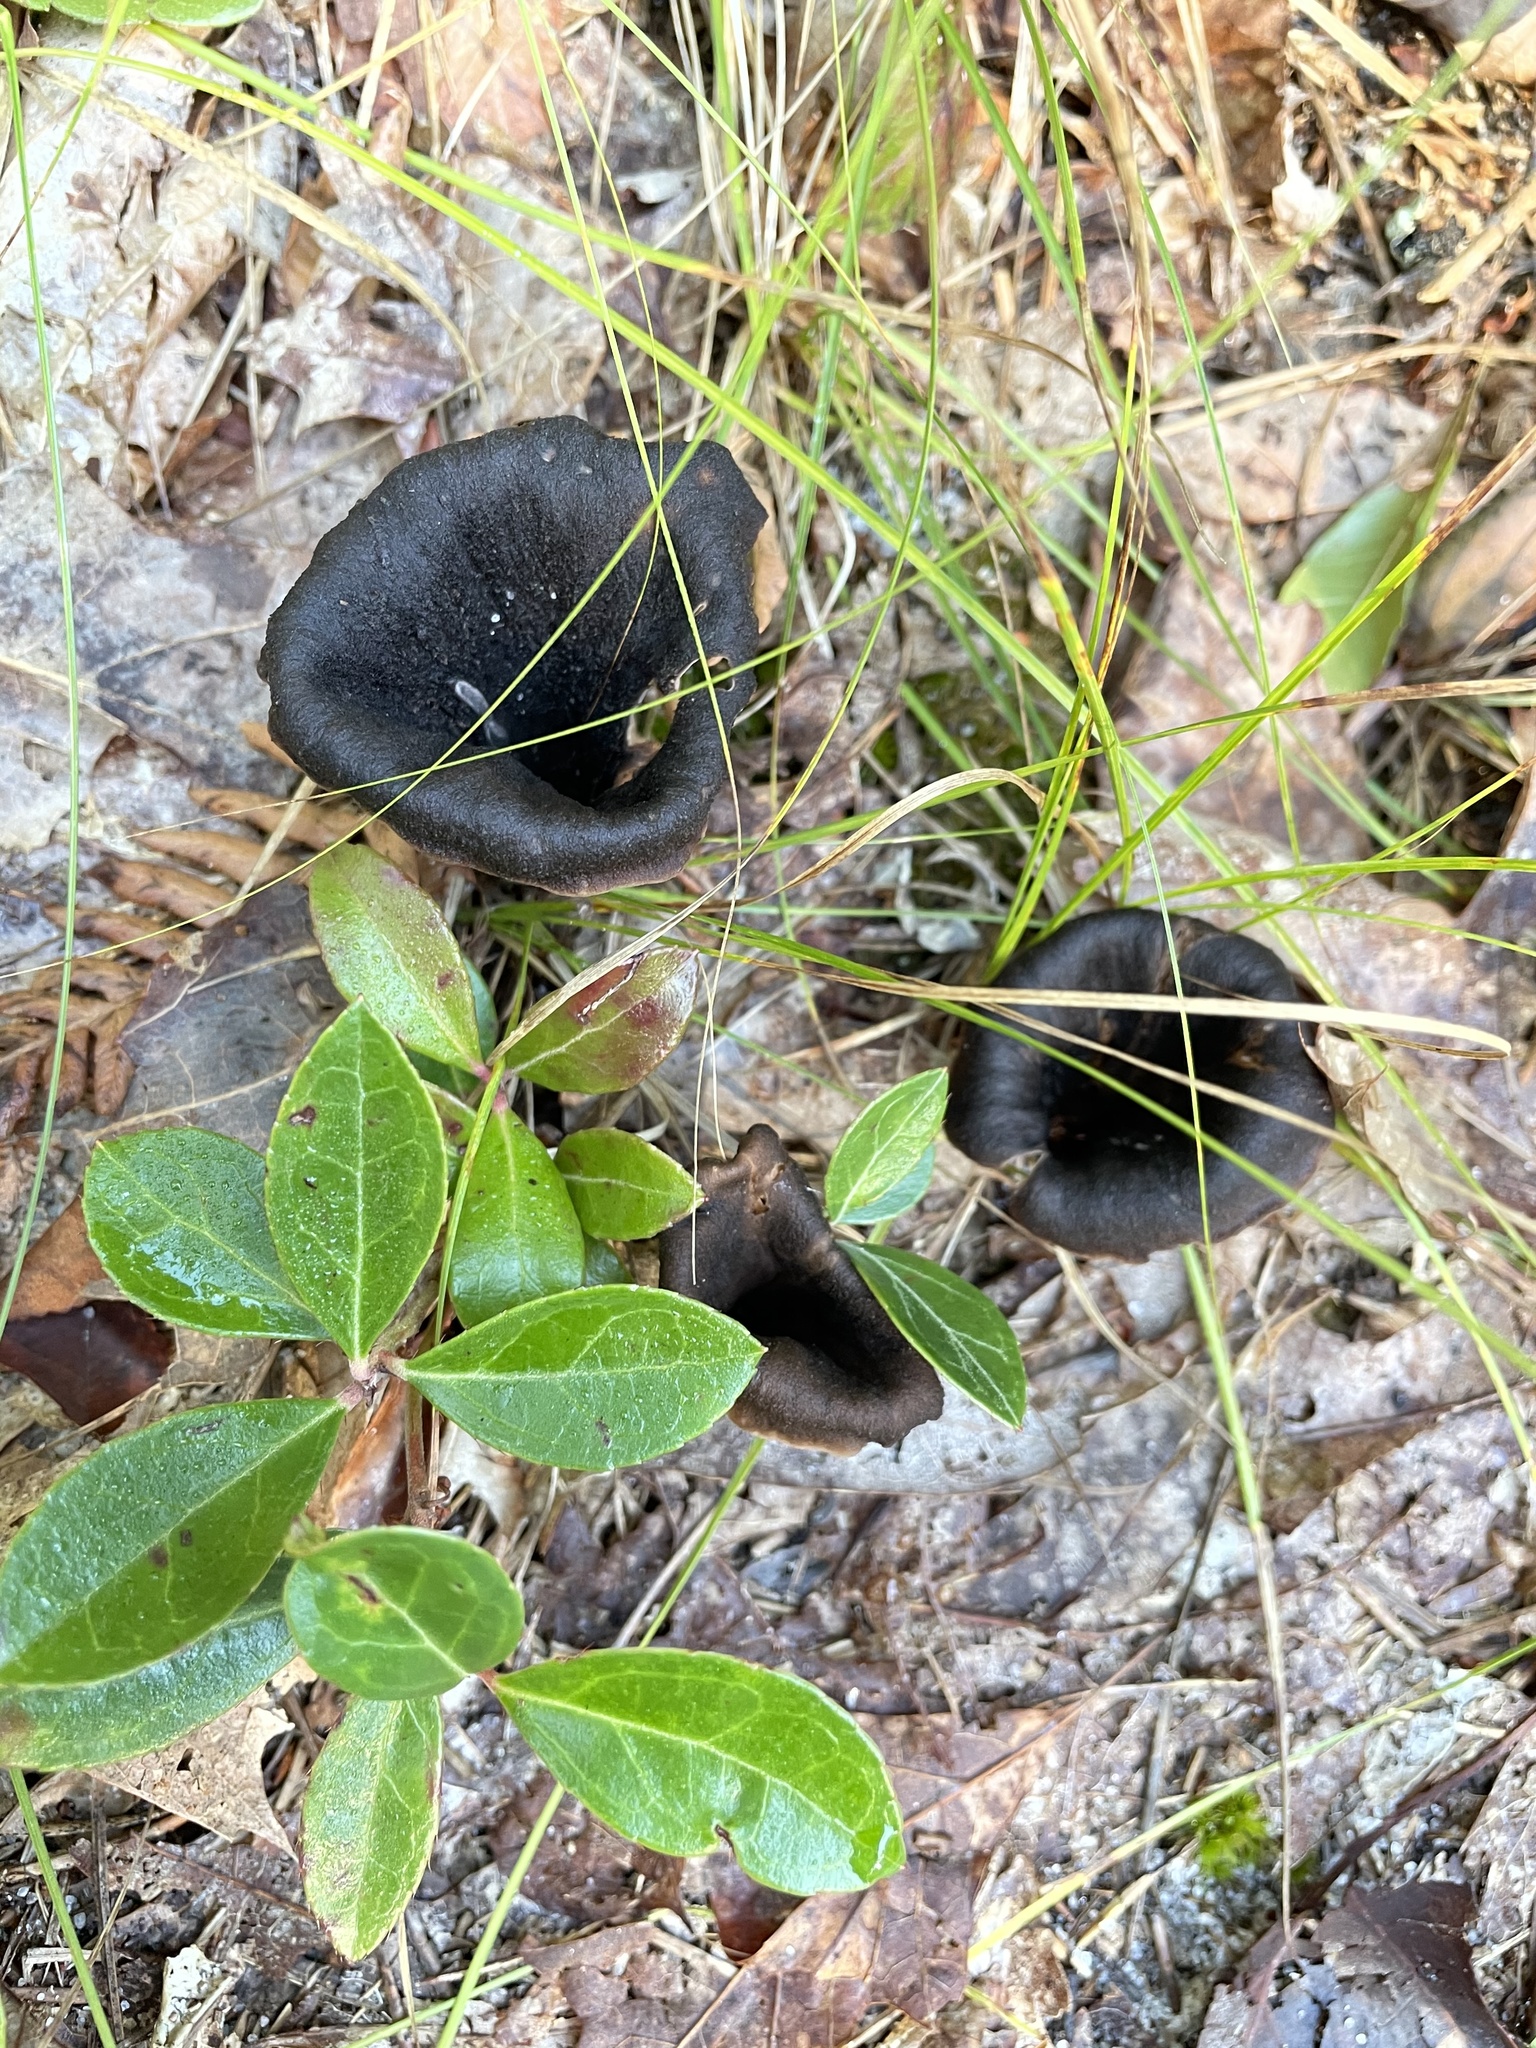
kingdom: Fungi
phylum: Basidiomycota
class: Agaricomycetes
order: Cantharellales
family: Hydnaceae
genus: Craterellus
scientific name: Craterellus cornucopioides
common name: Horn of plenty
